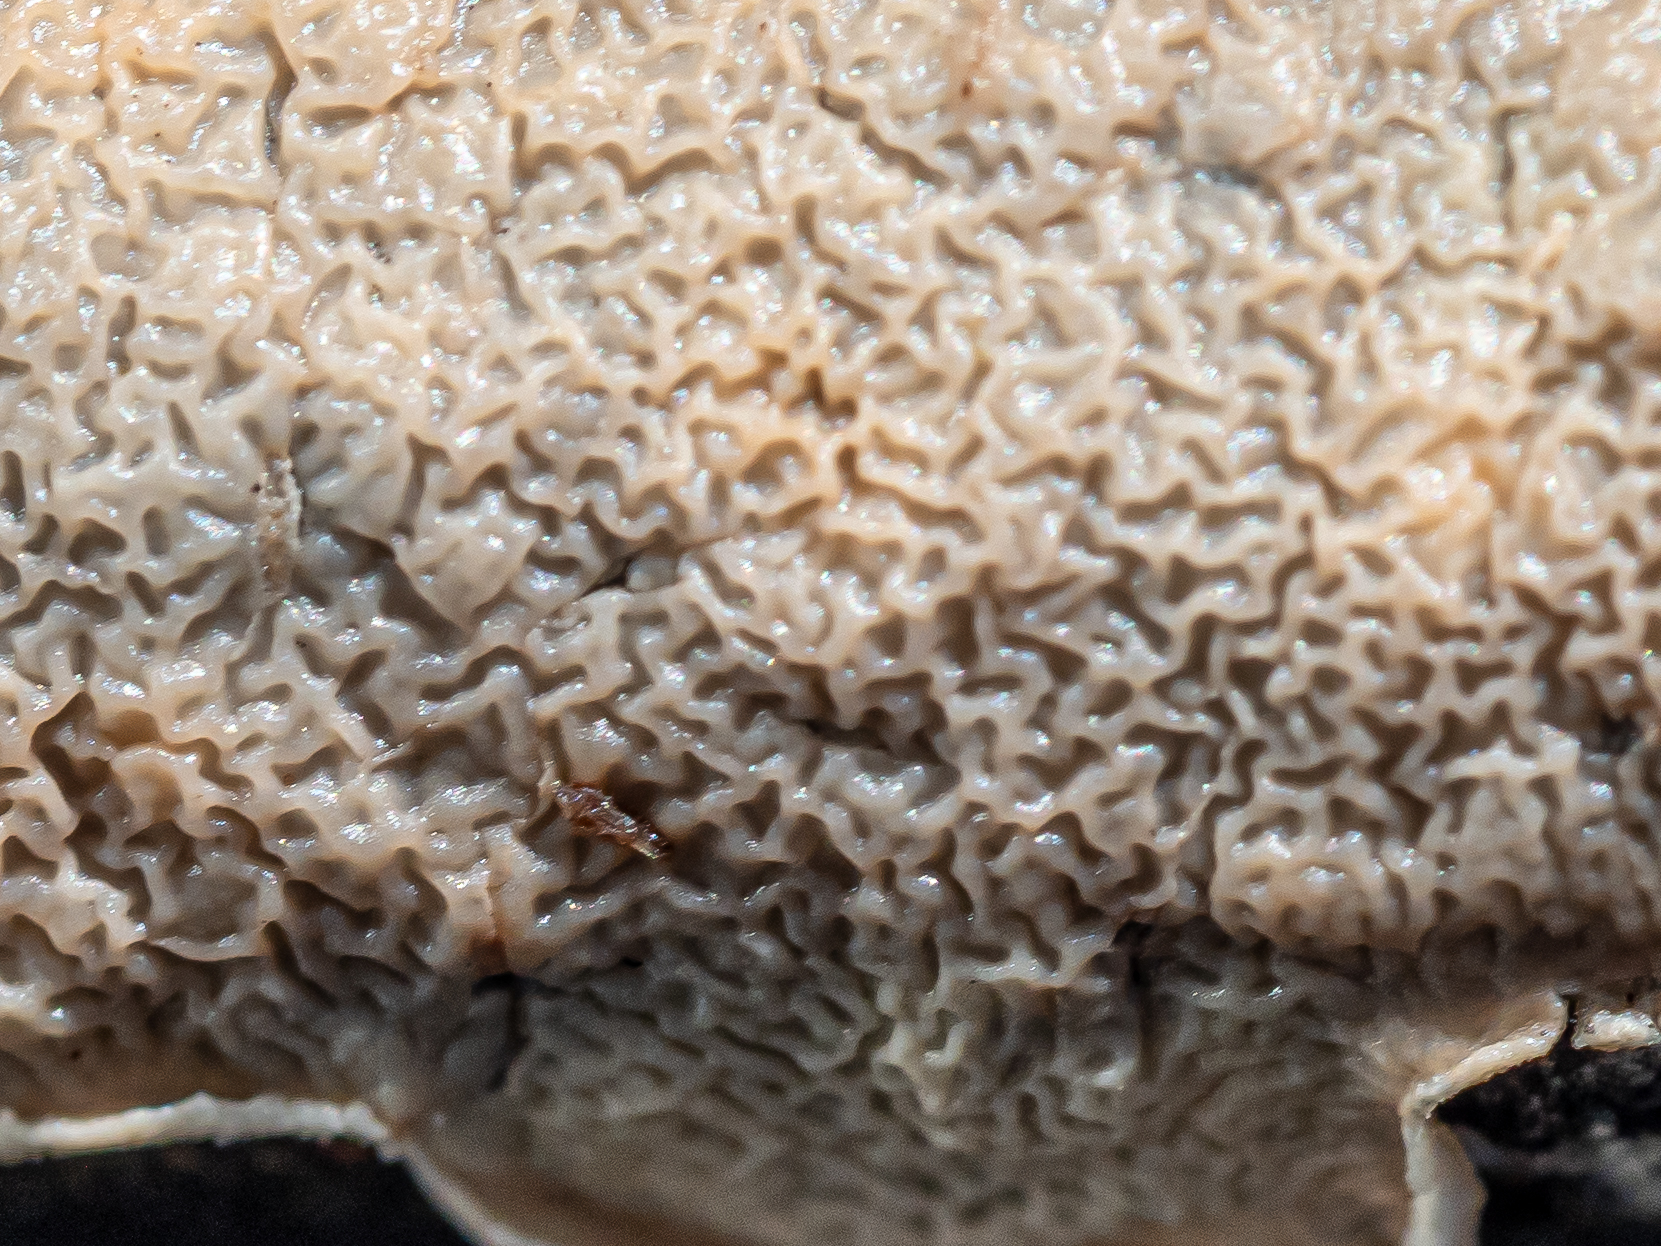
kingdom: Fungi
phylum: Basidiomycota
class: Agaricomycetes
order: Polyporales
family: Irpicaceae
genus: Byssomerulius
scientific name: Byssomerulius corium
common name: Netted crust
